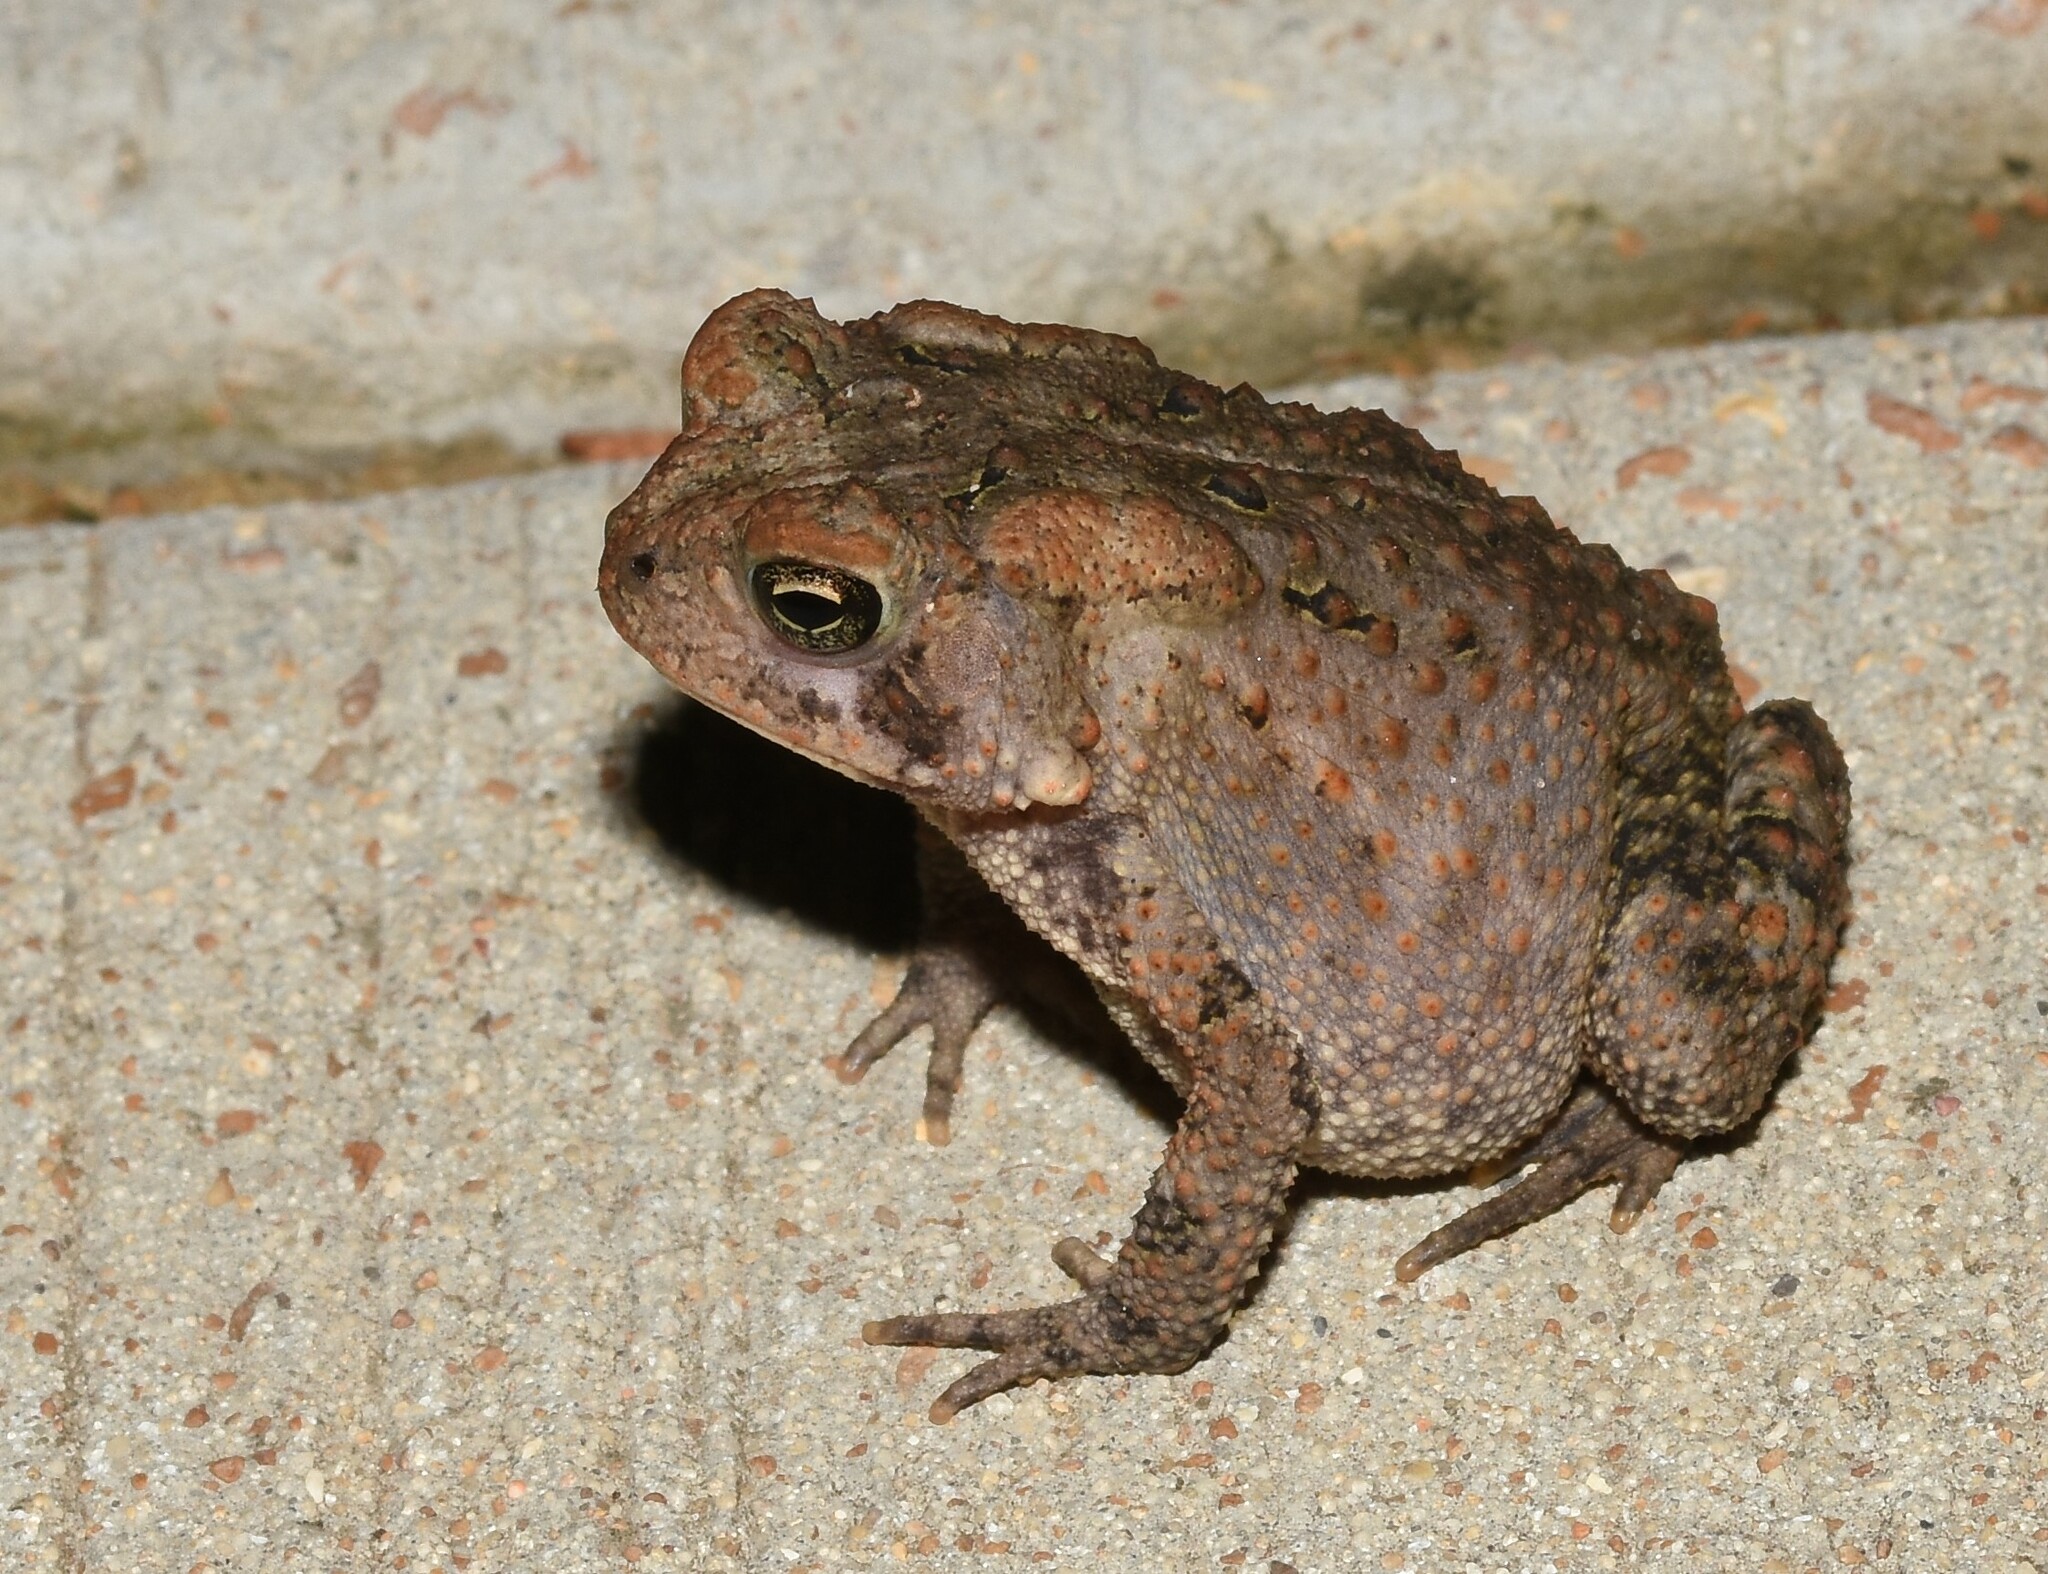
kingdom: Animalia
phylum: Chordata
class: Amphibia
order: Anura
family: Bufonidae
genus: Anaxyrus
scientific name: Anaxyrus americanus
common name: American toad
